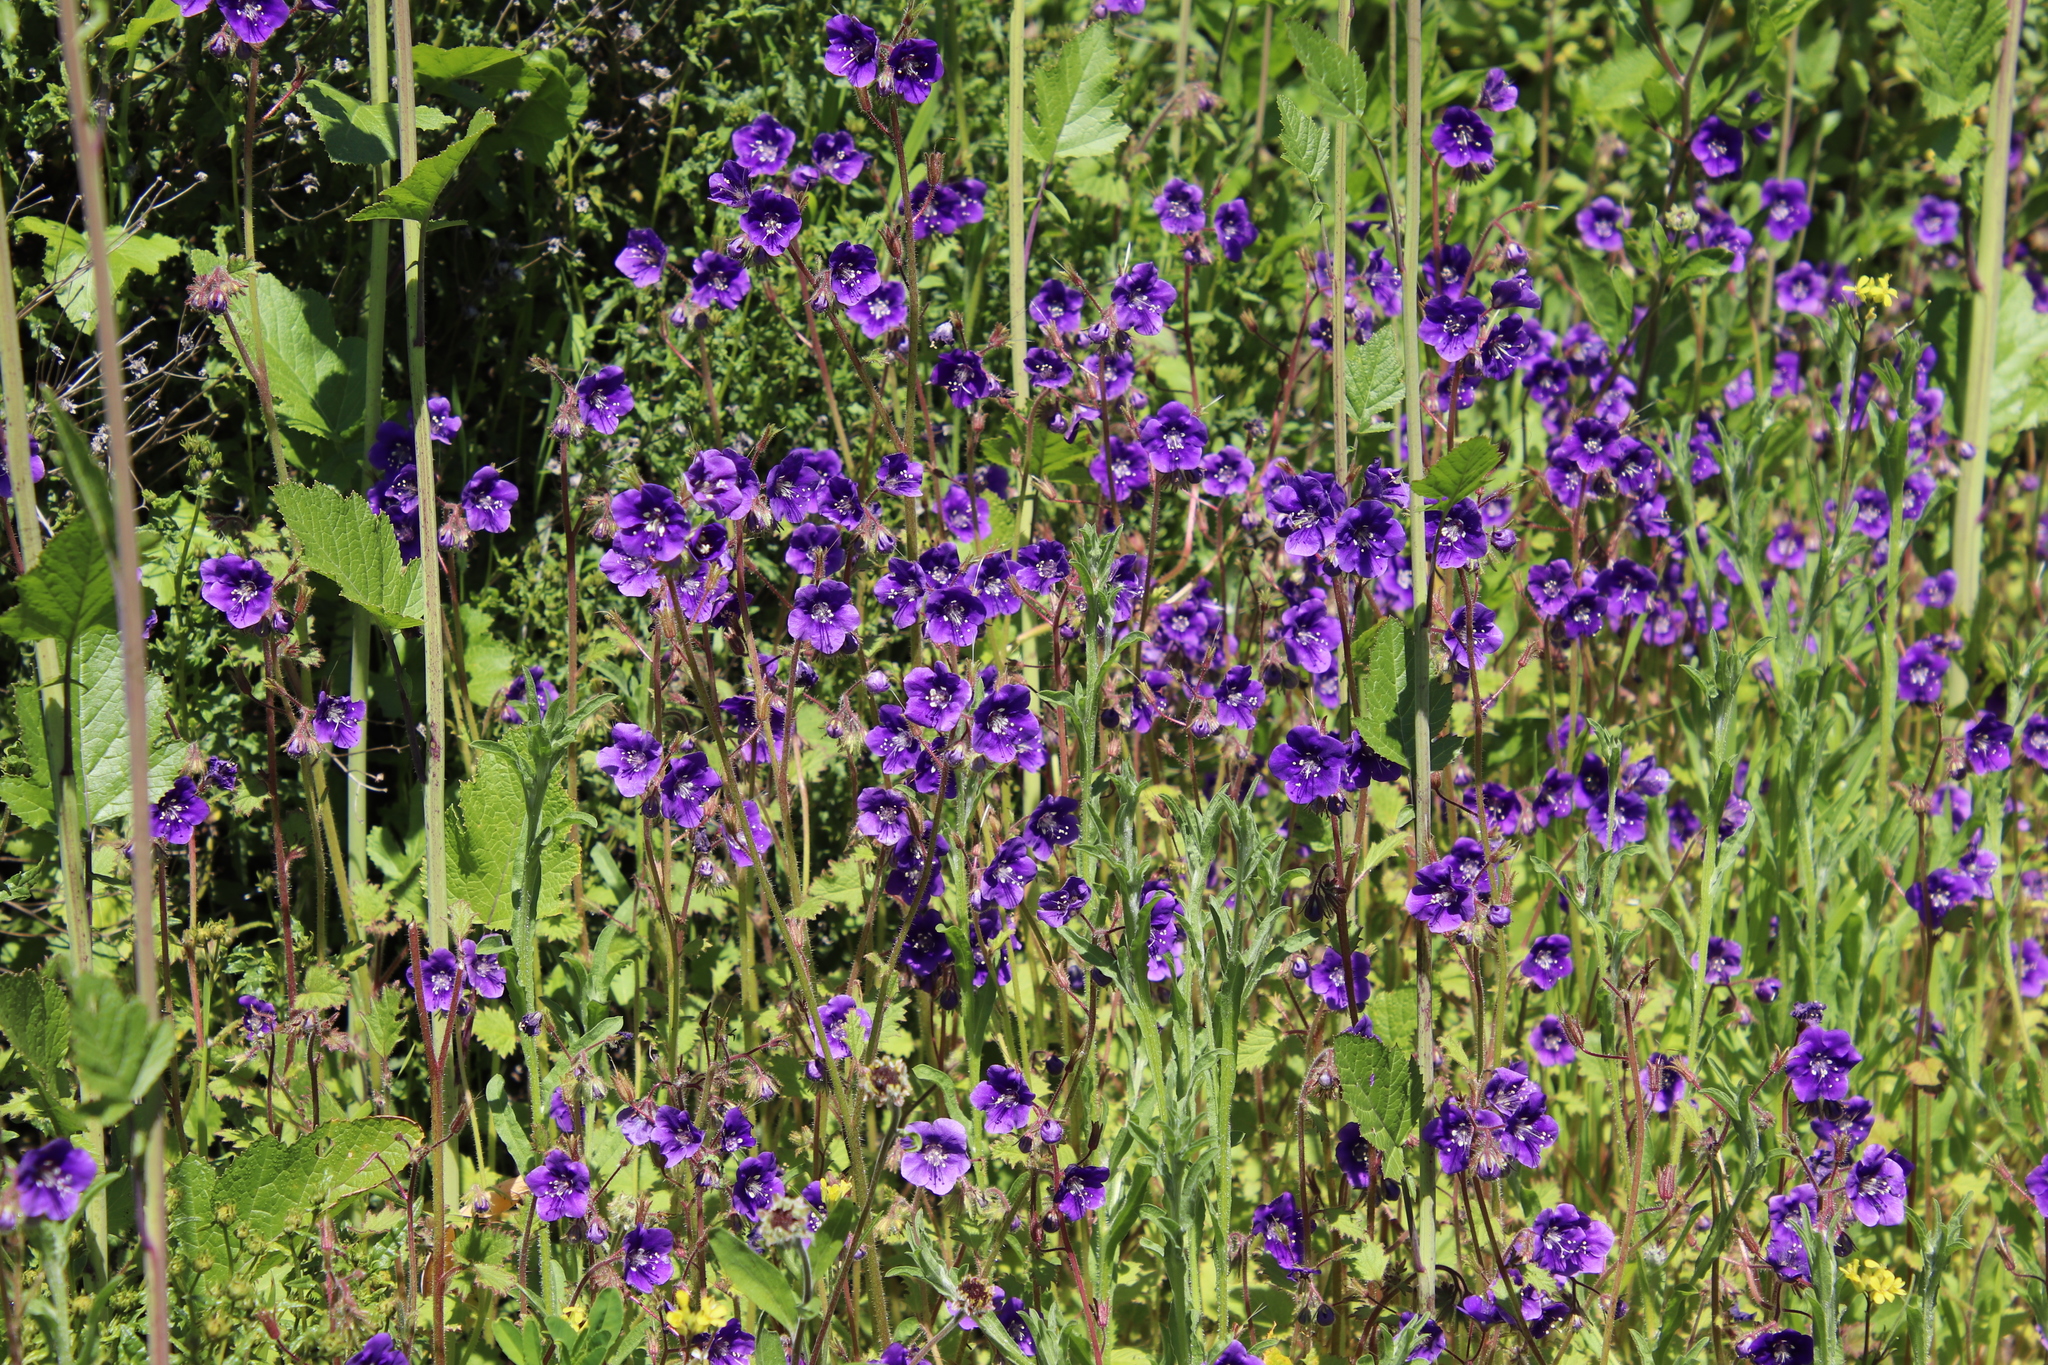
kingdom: Plantae
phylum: Tracheophyta
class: Magnoliopsida
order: Boraginales
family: Hydrophyllaceae
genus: Phacelia
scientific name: Phacelia parryi
